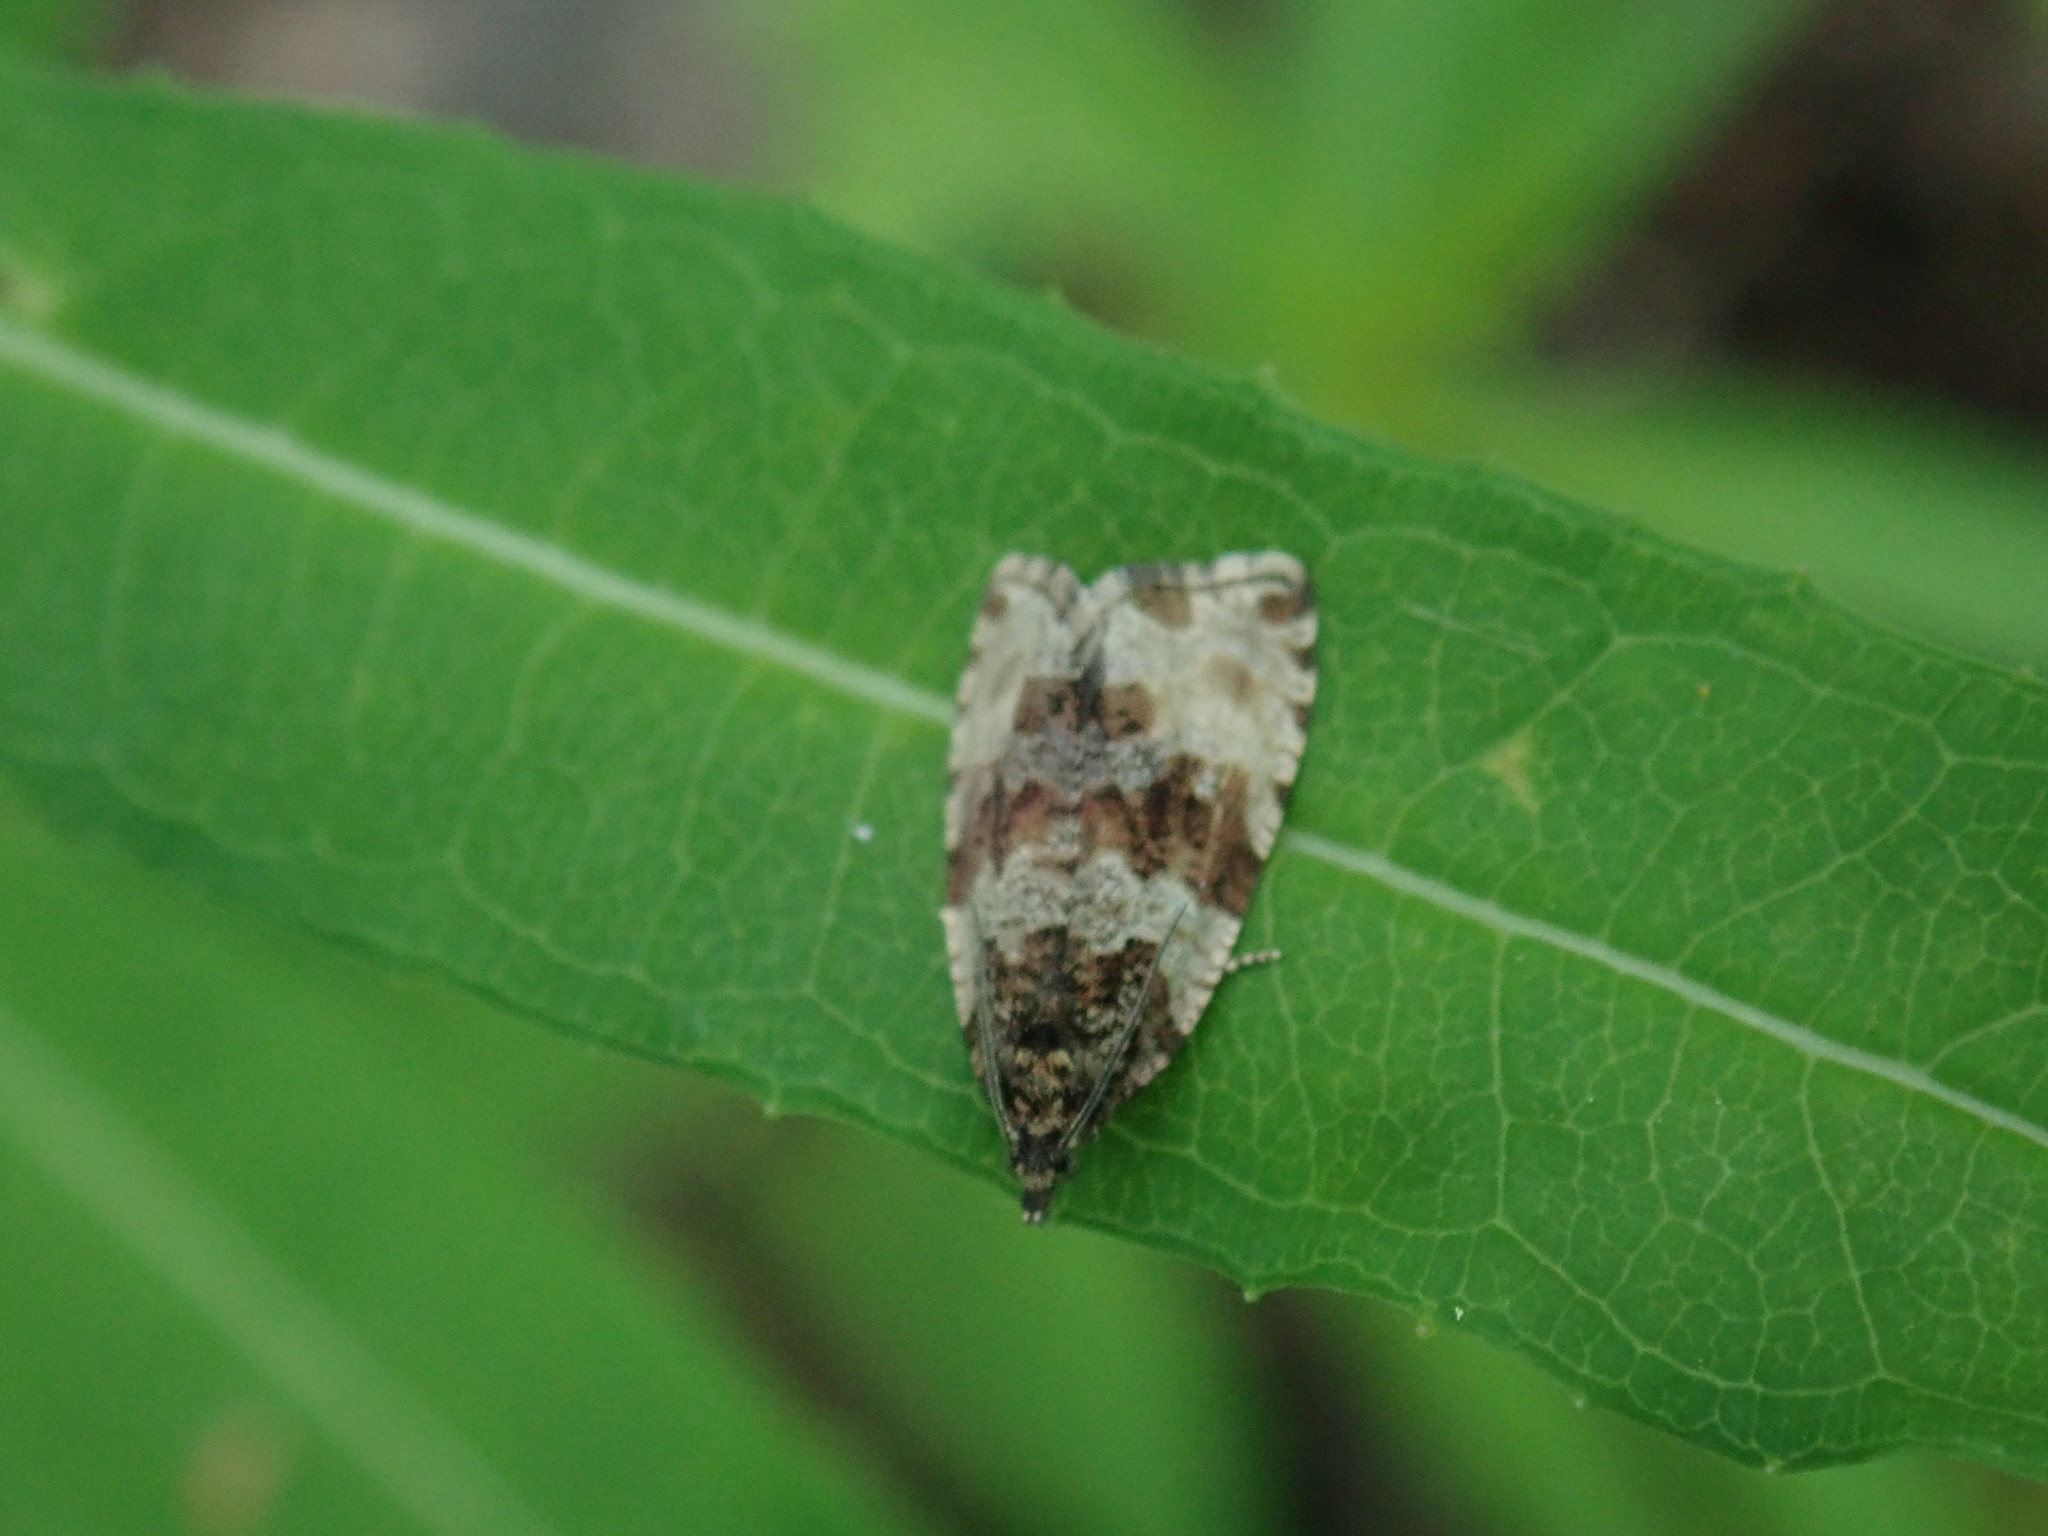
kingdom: Animalia
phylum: Arthropoda
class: Insecta
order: Lepidoptera
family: Tortricidae
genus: Orthotaenia
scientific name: Orthotaenia undulana
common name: Woodland marble
